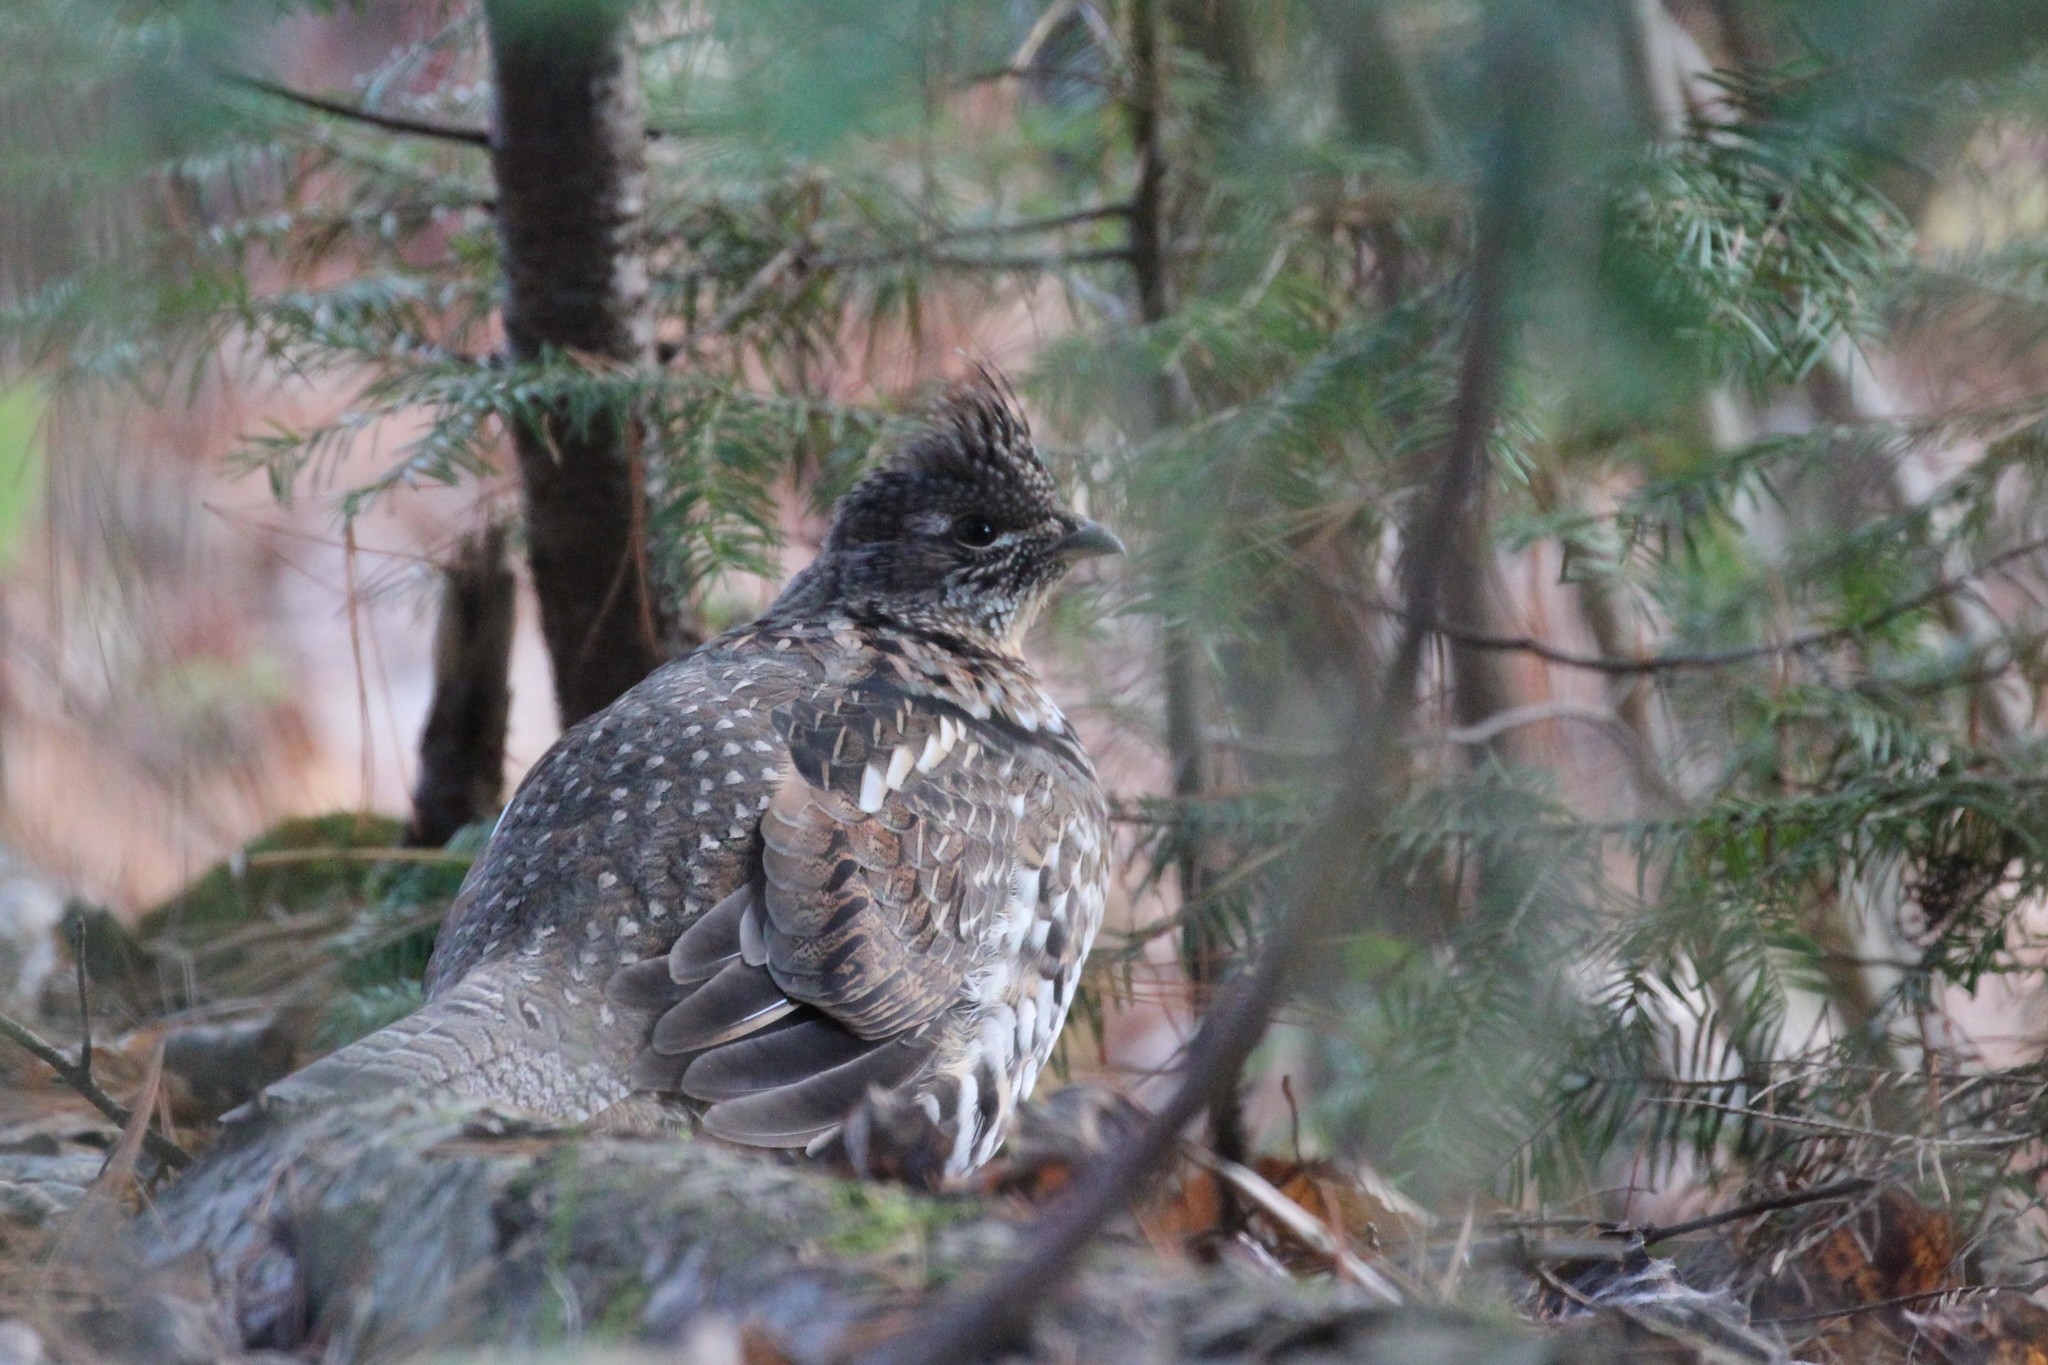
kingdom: Animalia
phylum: Chordata
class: Aves
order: Galliformes
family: Phasianidae
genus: Bonasa
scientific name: Bonasa umbellus
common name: Ruffed grouse
